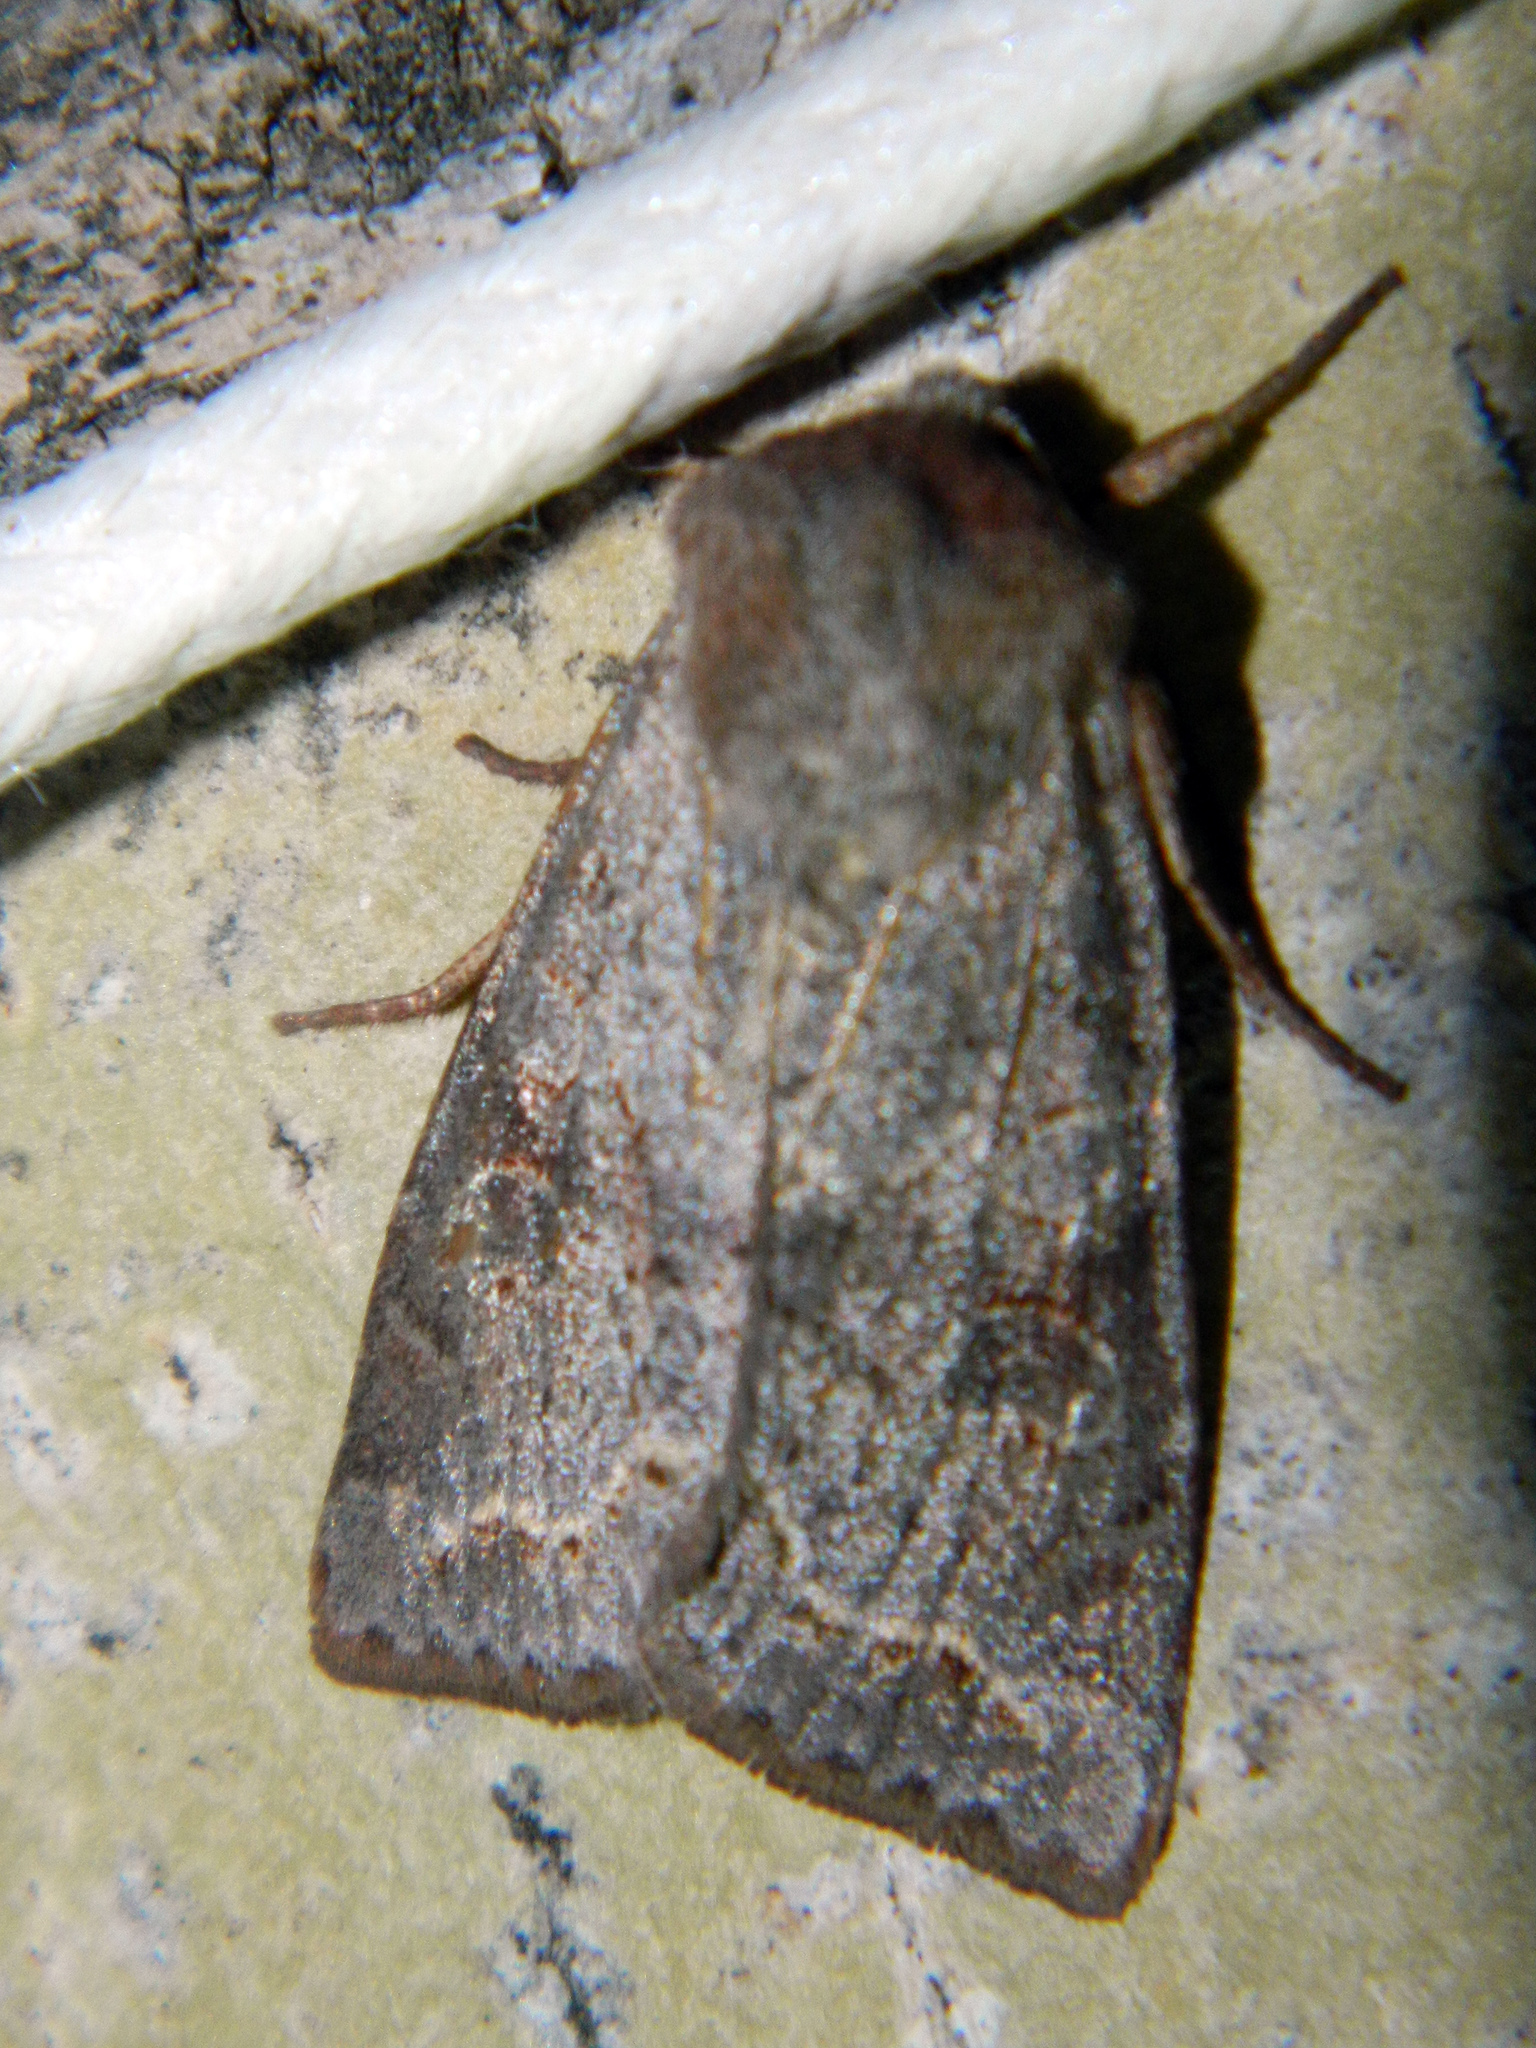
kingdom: Animalia
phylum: Arthropoda
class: Insecta
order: Lepidoptera
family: Noctuidae
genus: Orthosia
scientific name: Orthosia revicta
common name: Rusty whitesided caterpillar
